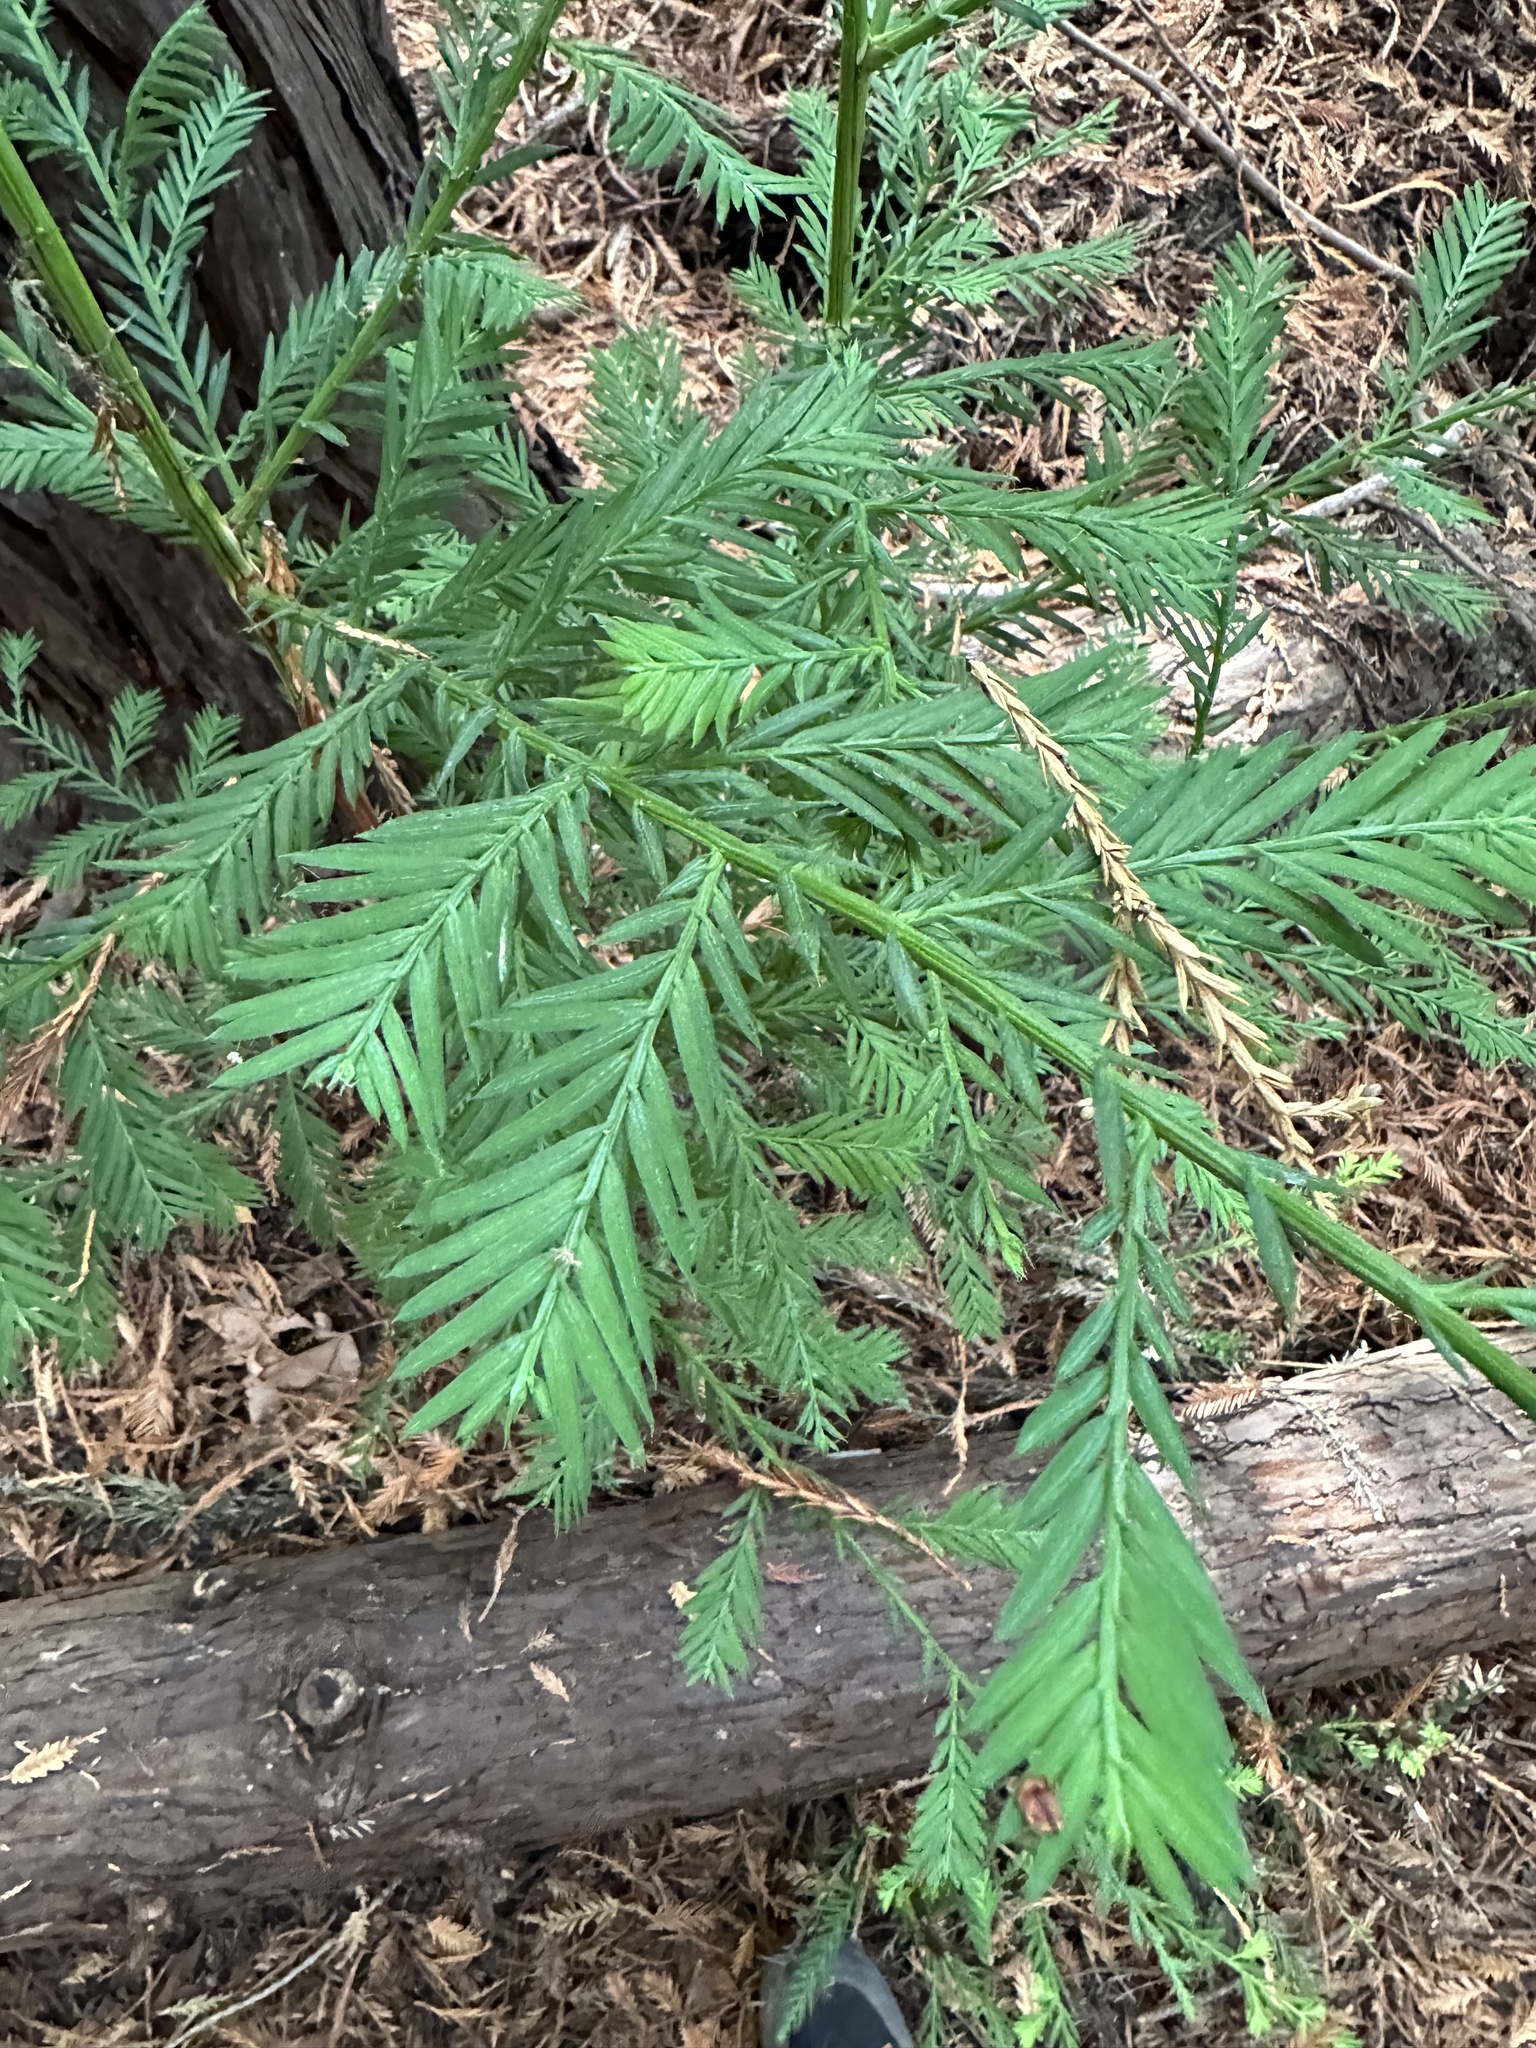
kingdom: Plantae
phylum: Tracheophyta
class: Pinopsida
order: Pinales
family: Cupressaceae
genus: Sequoia
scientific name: Sequoia sempervirens
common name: Coast redwood
